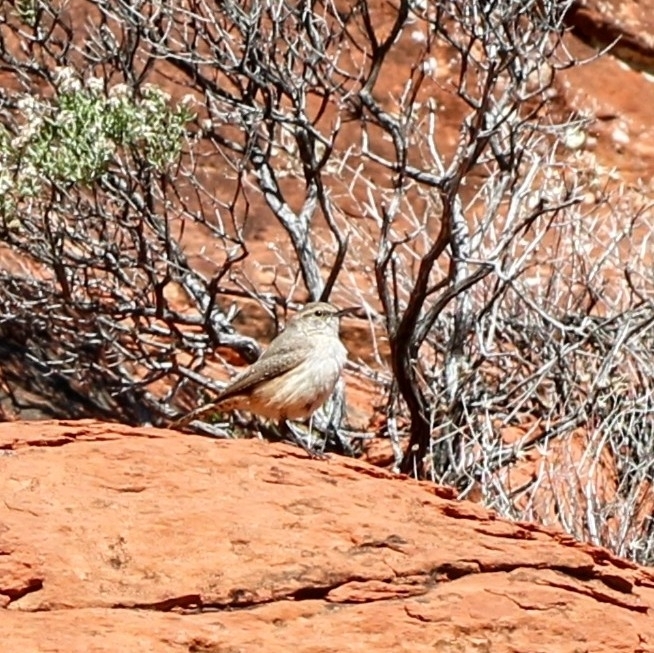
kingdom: Animalia
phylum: Chordata
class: Aves
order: Passeriformes
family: Troglodytidae
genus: Salpinctes
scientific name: Salpinctes obsoletus
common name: Rock wren
